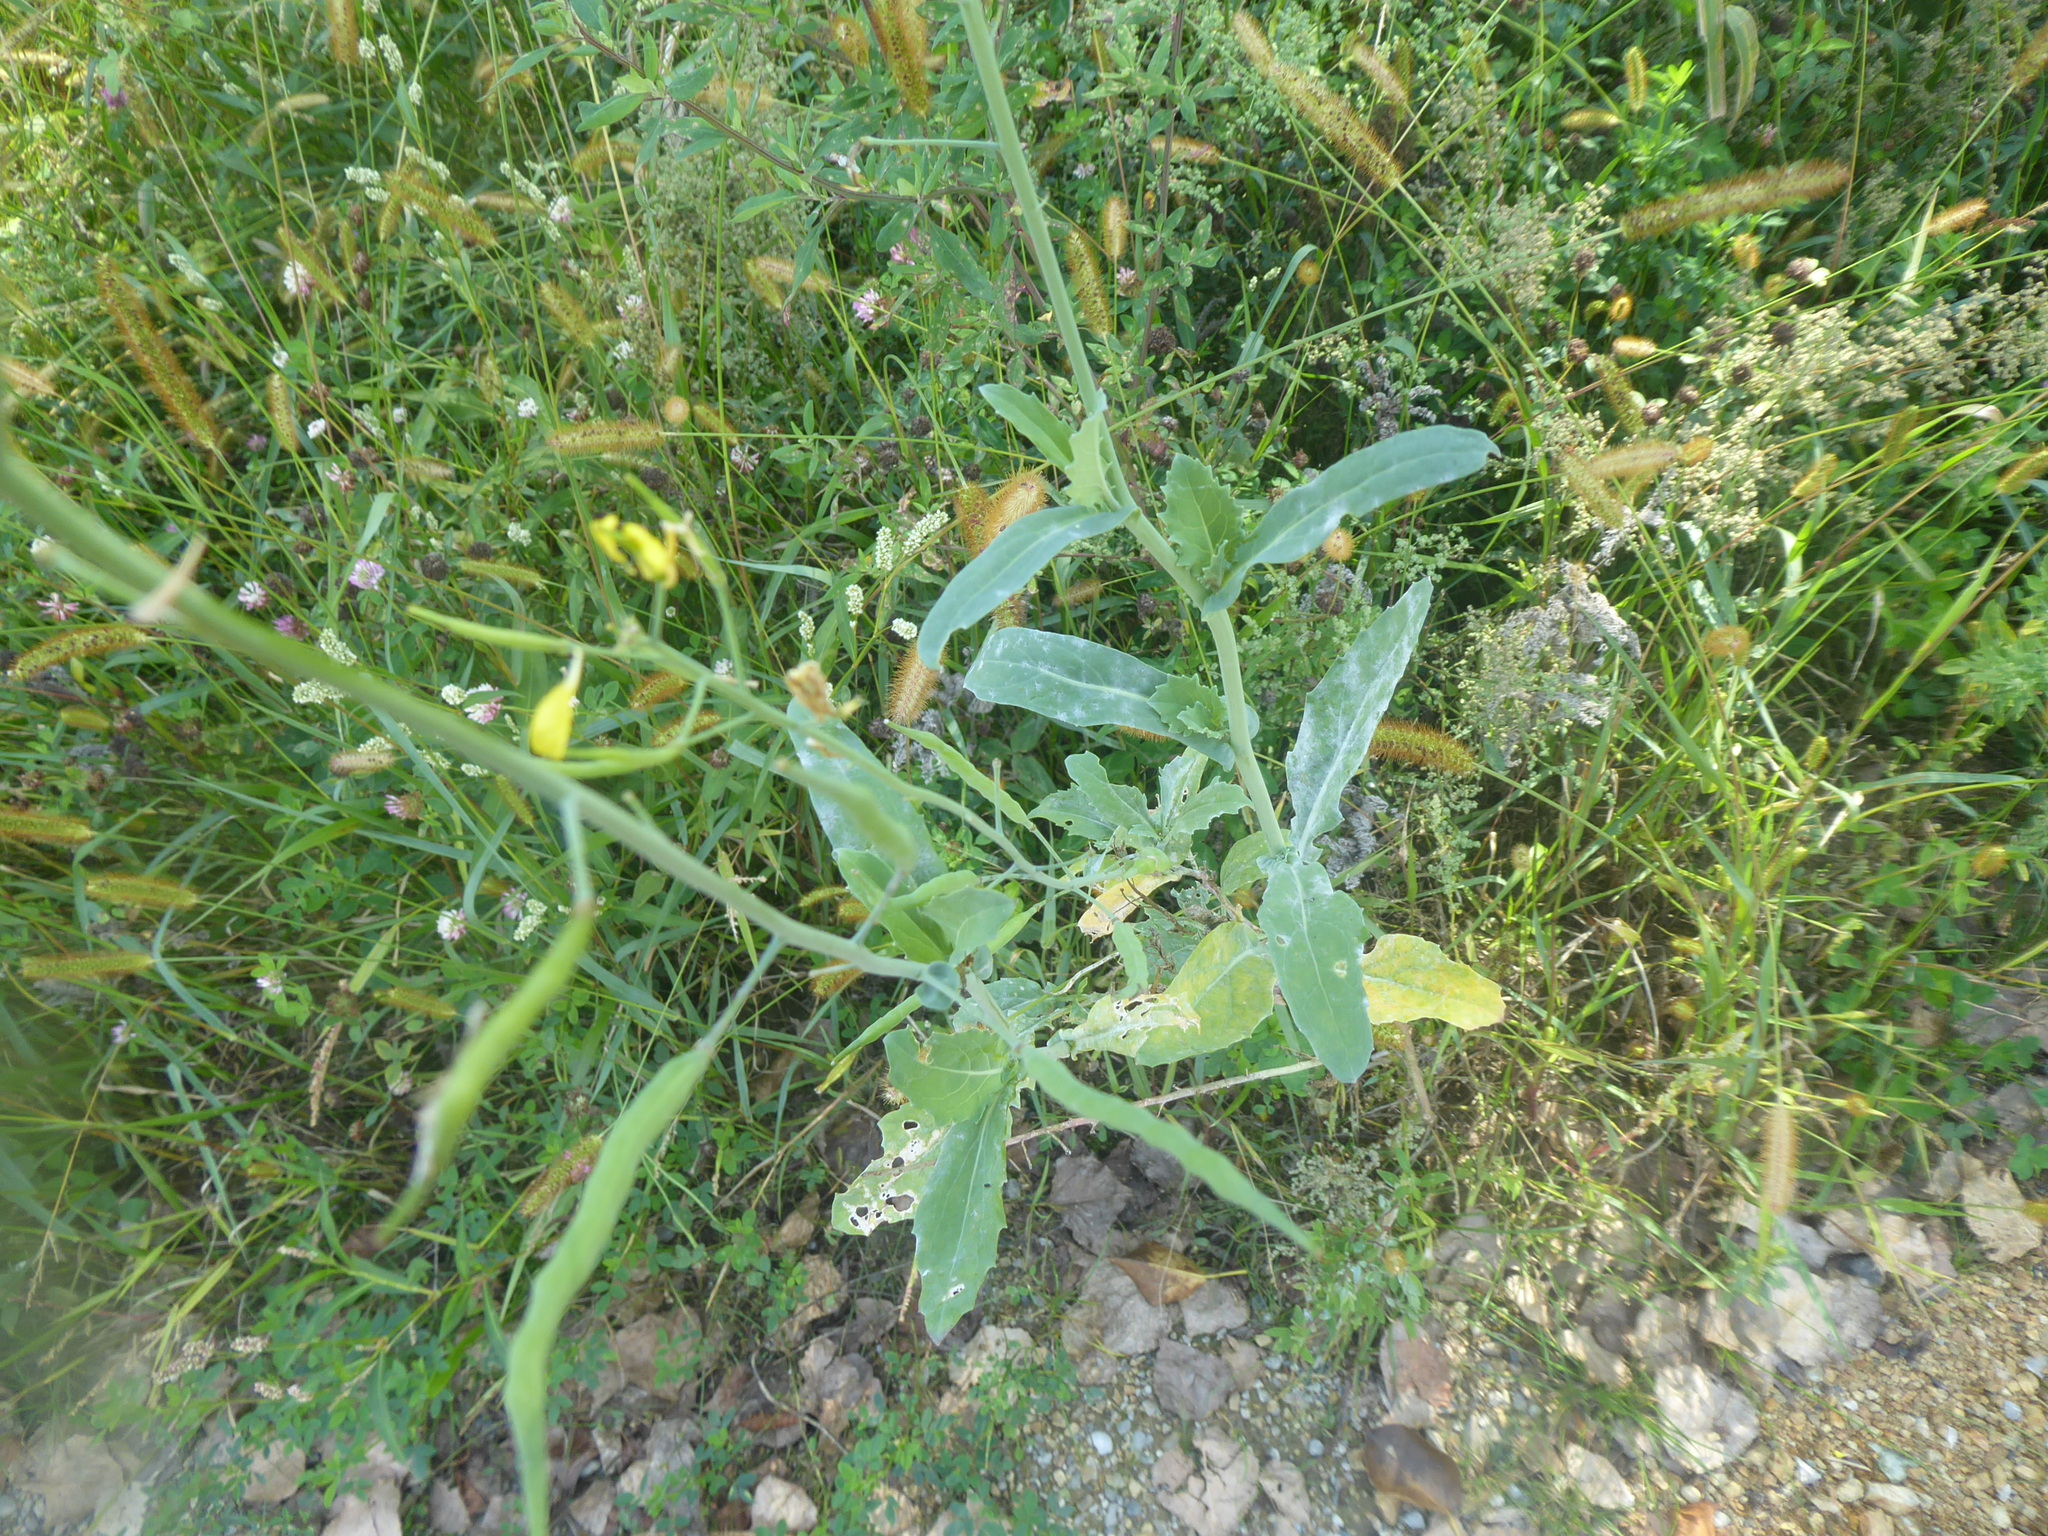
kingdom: Plantae
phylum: Tracheophyta
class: Magnoliopsida
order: Brassicales
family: Brassicaceae
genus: Diplotaxis
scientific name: Diplotaxis tenuifolia
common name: Perennial wall-rocket
